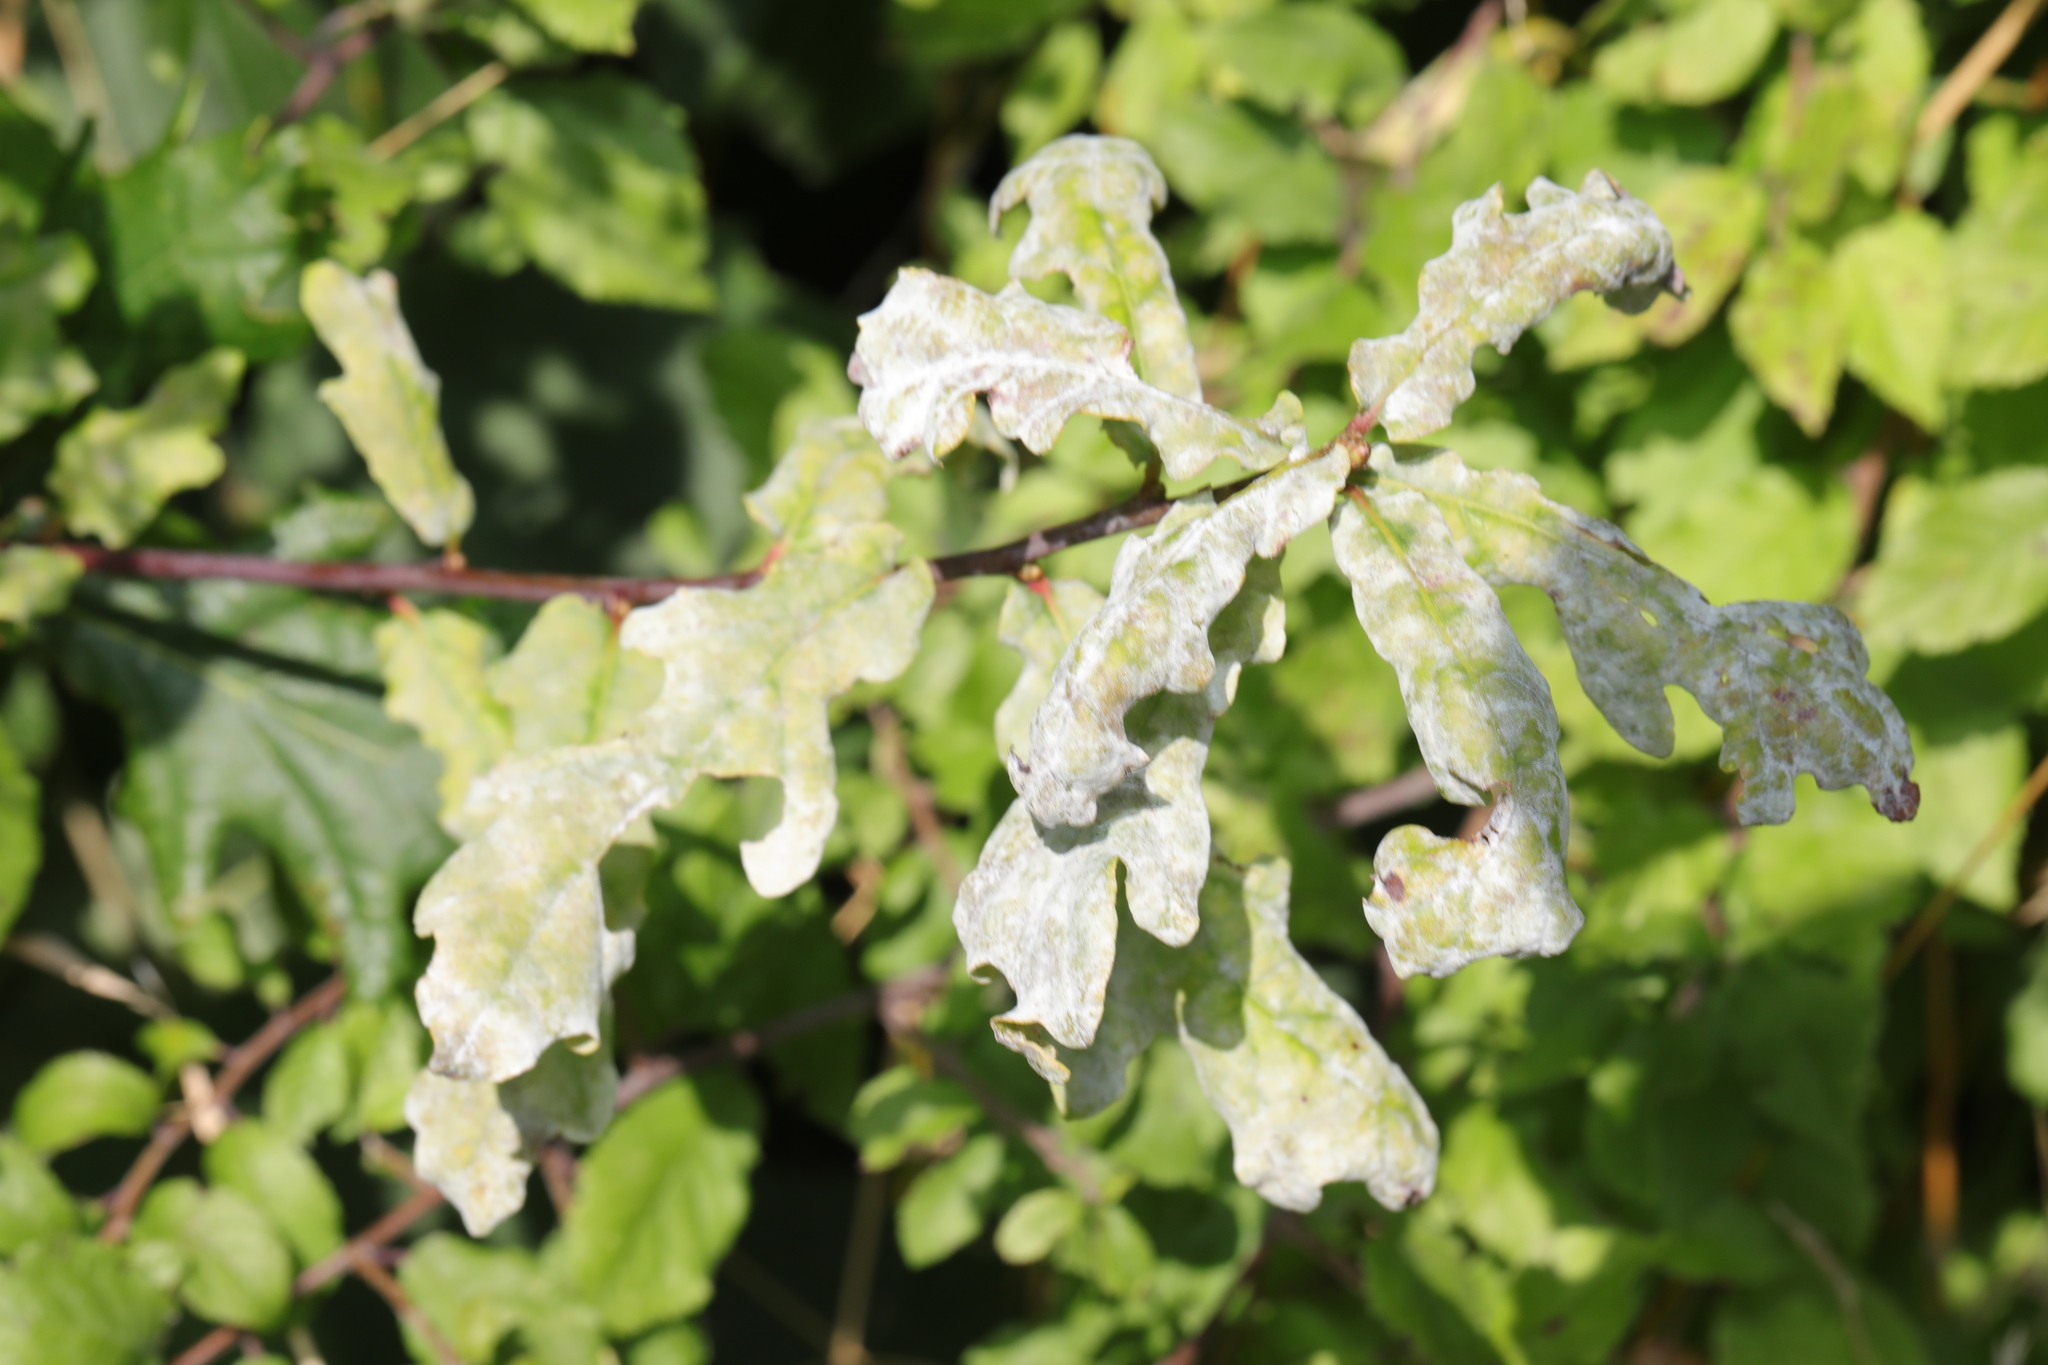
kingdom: Fungi
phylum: Ascomycota
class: Leotiomycetes
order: Helotiales
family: Erysiphaceae
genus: Erysiphe
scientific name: Erysiphe alphitoides
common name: Oak mildew
